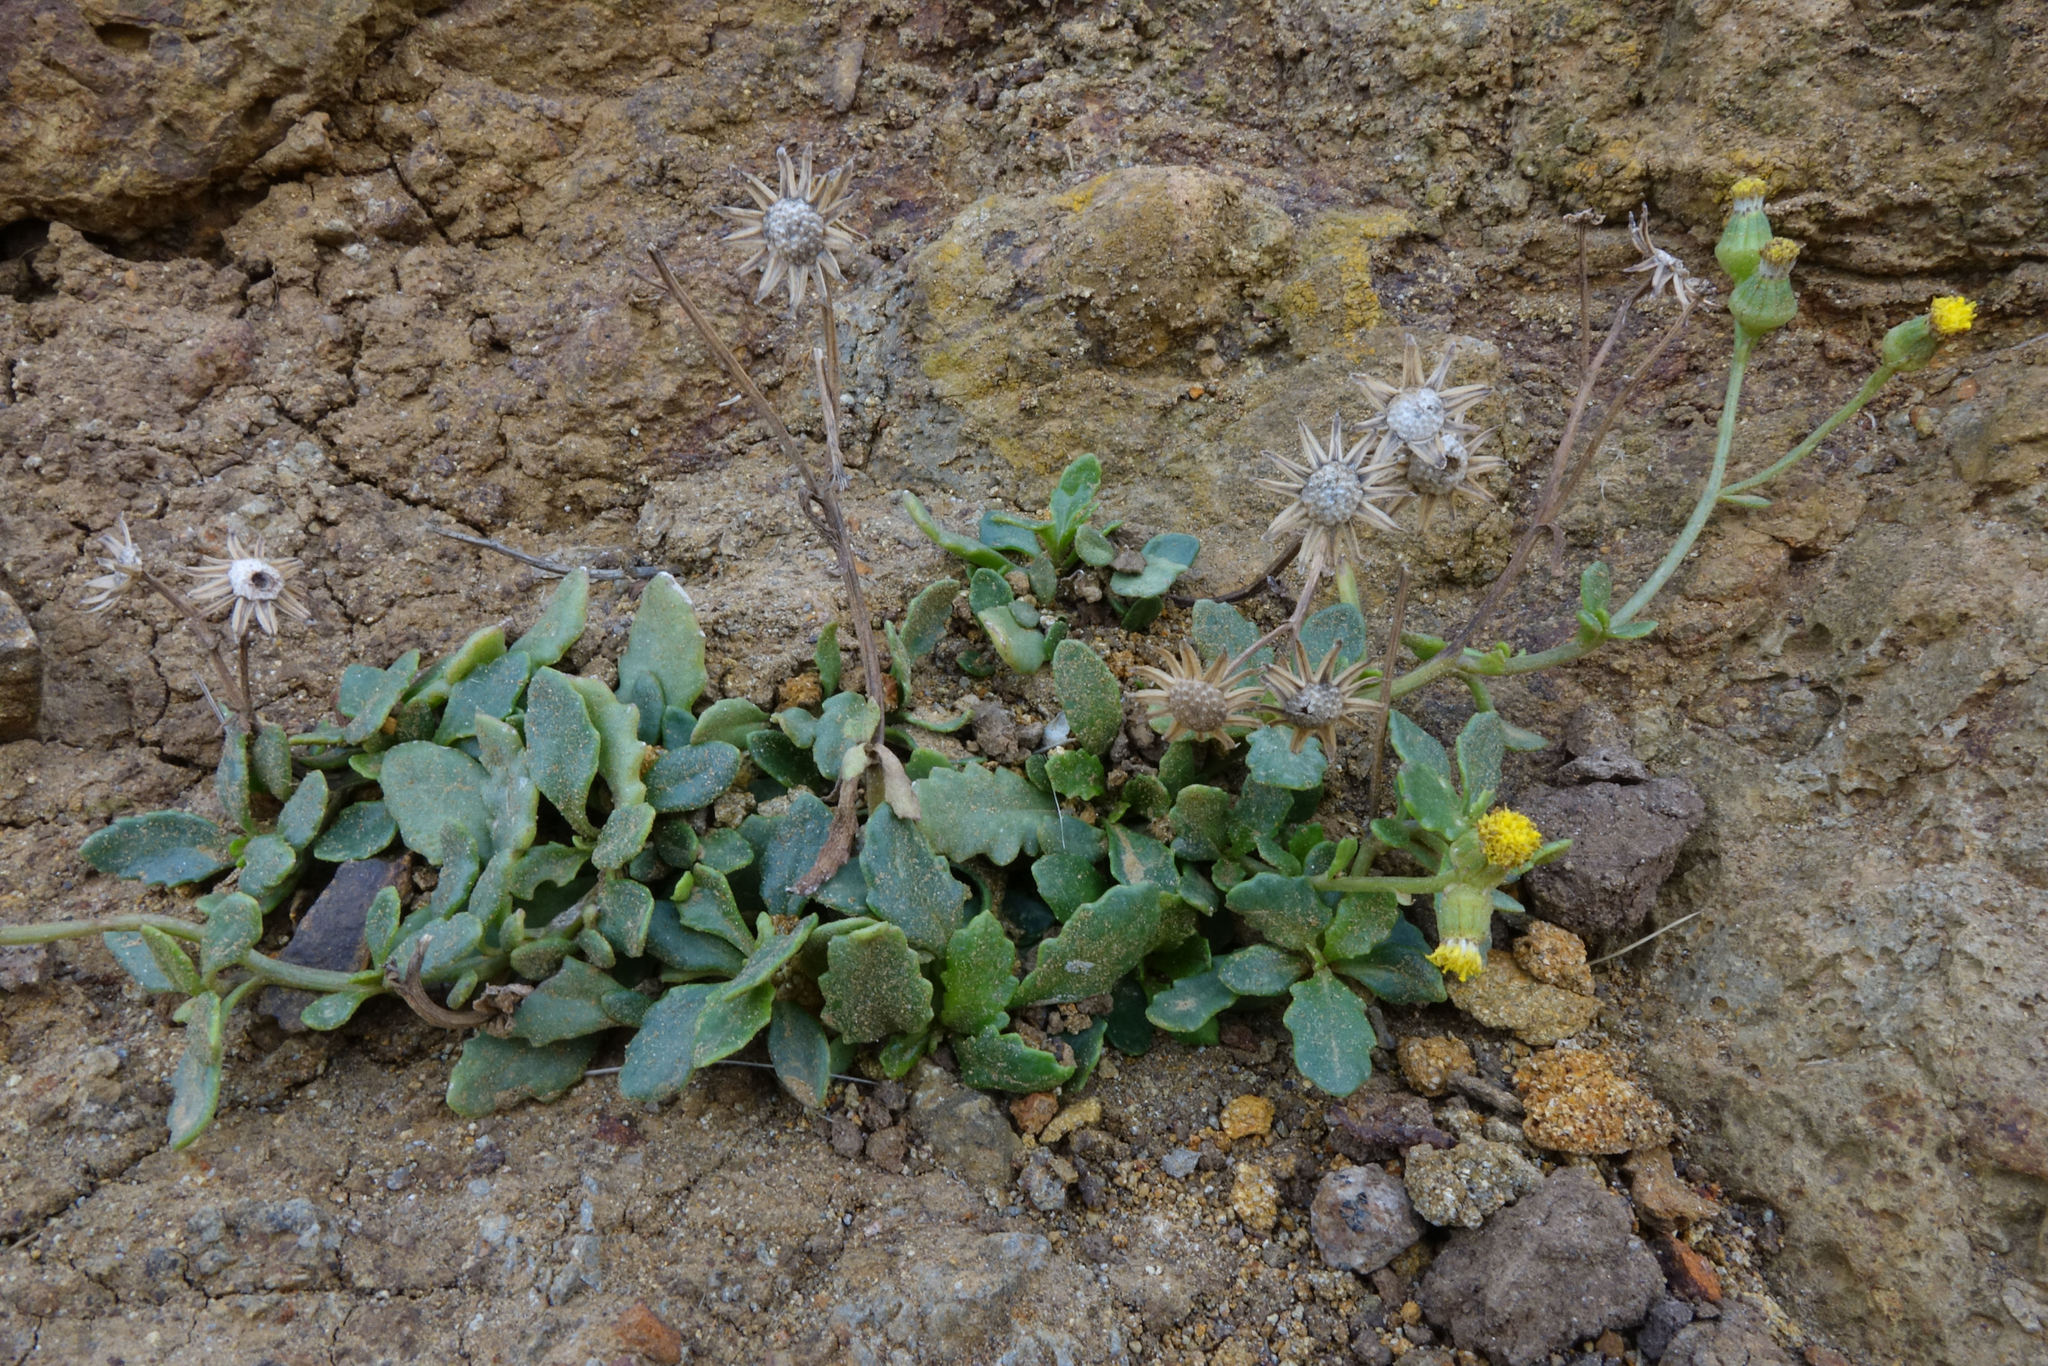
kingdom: Plantae
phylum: Tracheophyta
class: Magnoliopsida
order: Asterales
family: Asteraceae
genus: Senecio
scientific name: Senecio matatini
